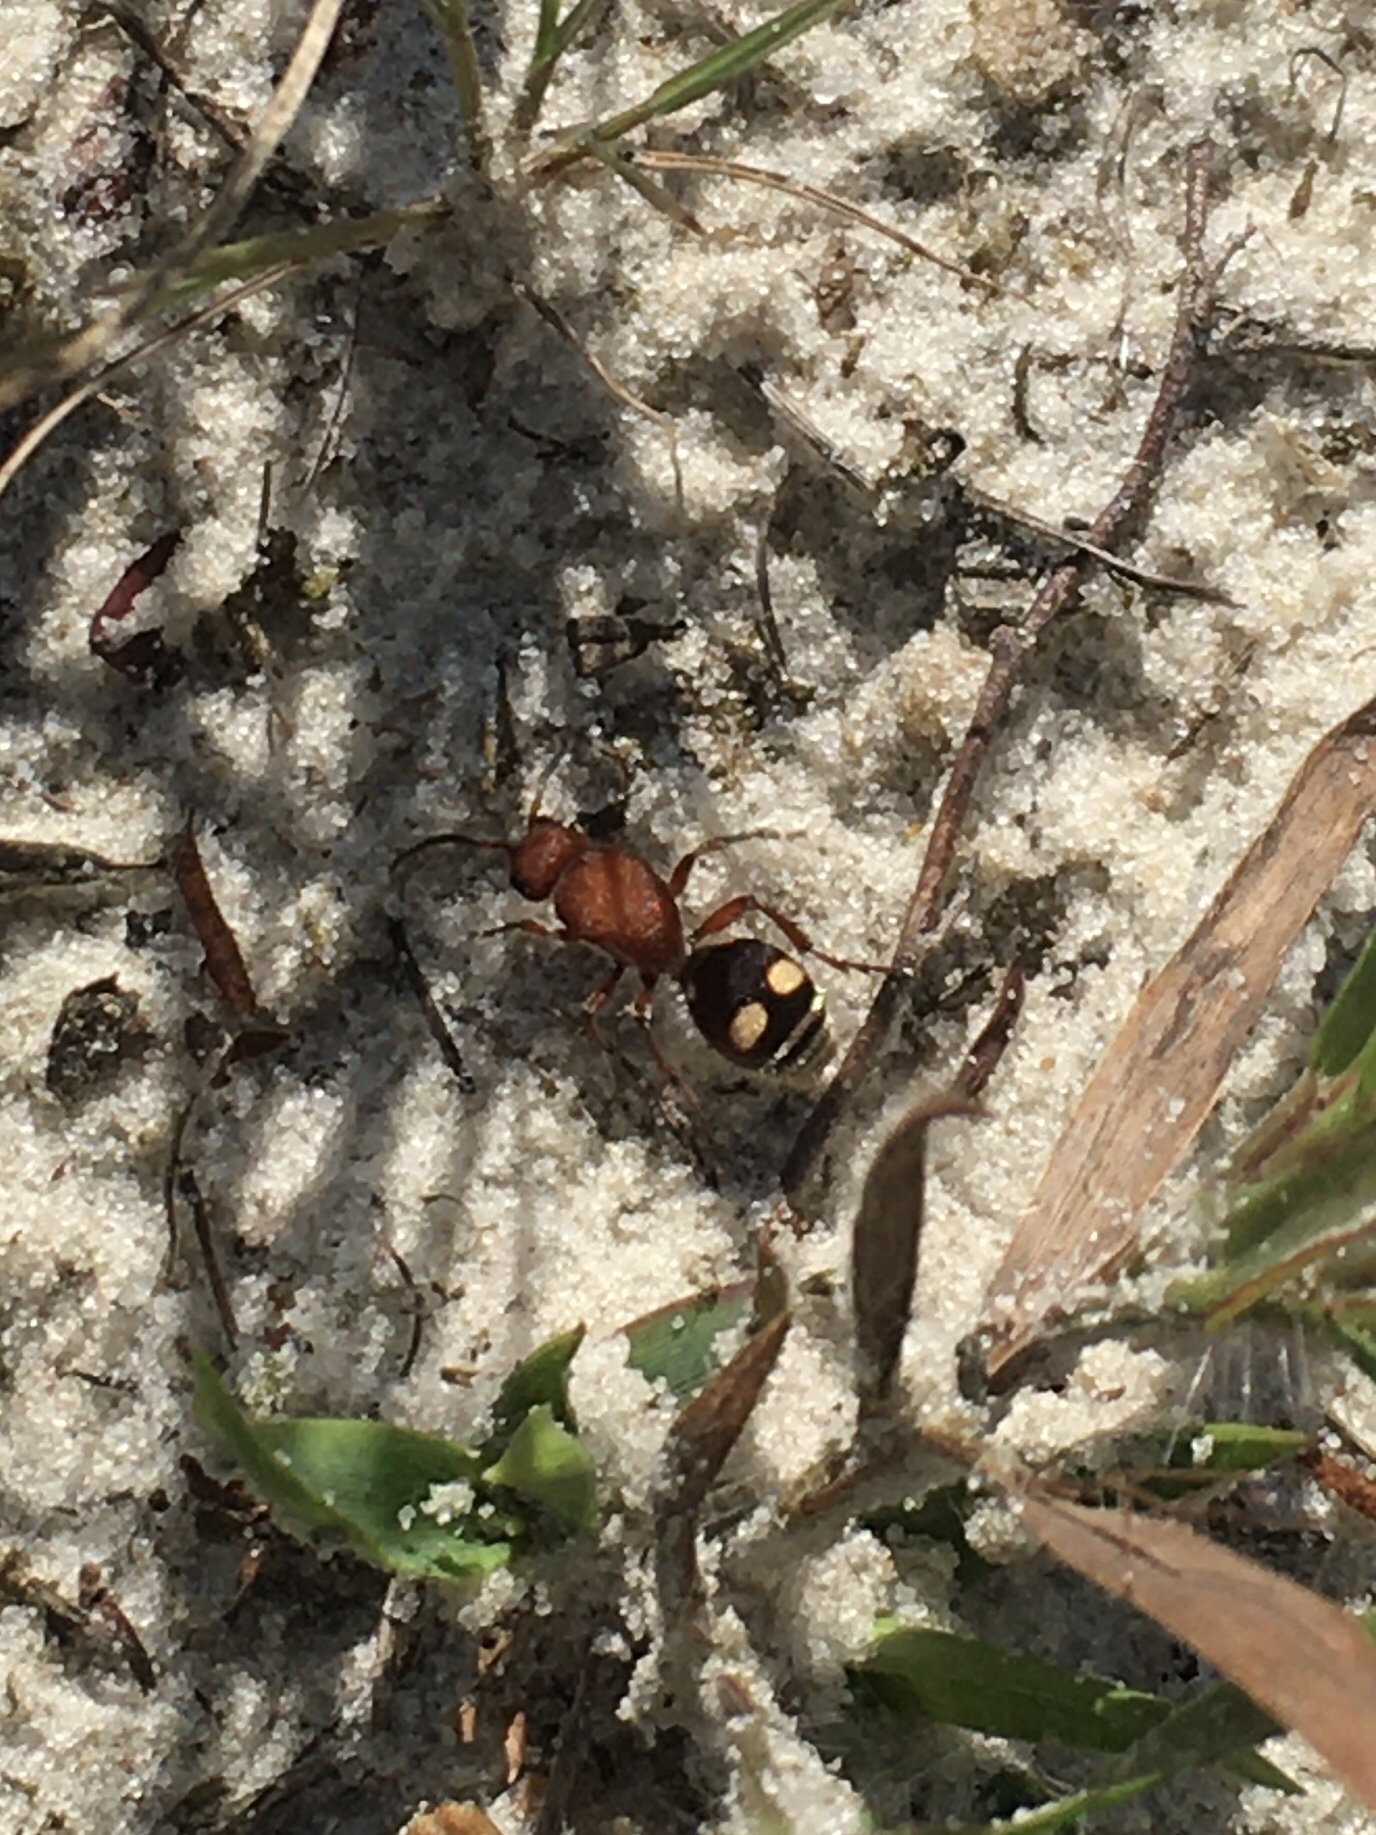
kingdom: Animalia
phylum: Arthropoda
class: Insecta
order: Hymenoptera
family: Mutillidae
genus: Dasymutilla
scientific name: Dasymutilla
